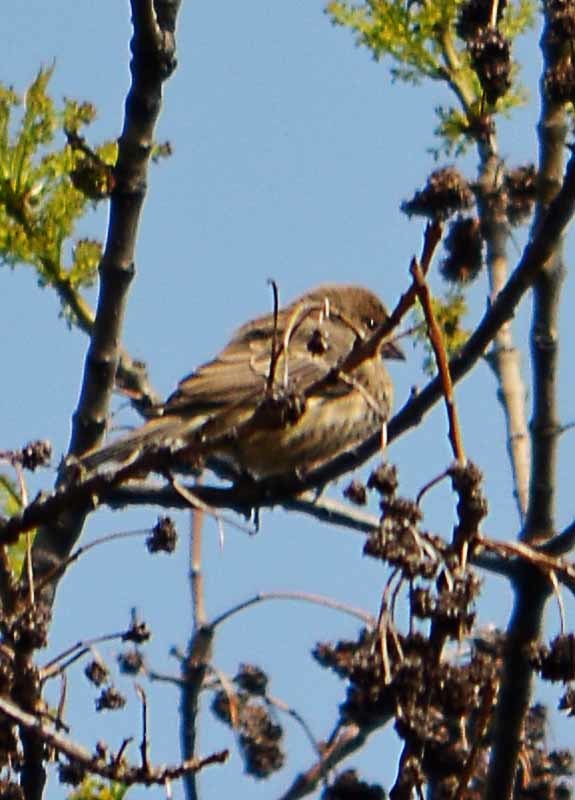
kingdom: Animalia
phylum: Chordata
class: Aves
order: Passeriformes
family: Fringillidae
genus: Haemorhous
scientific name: Haemorhous mexicanus
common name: House finch
